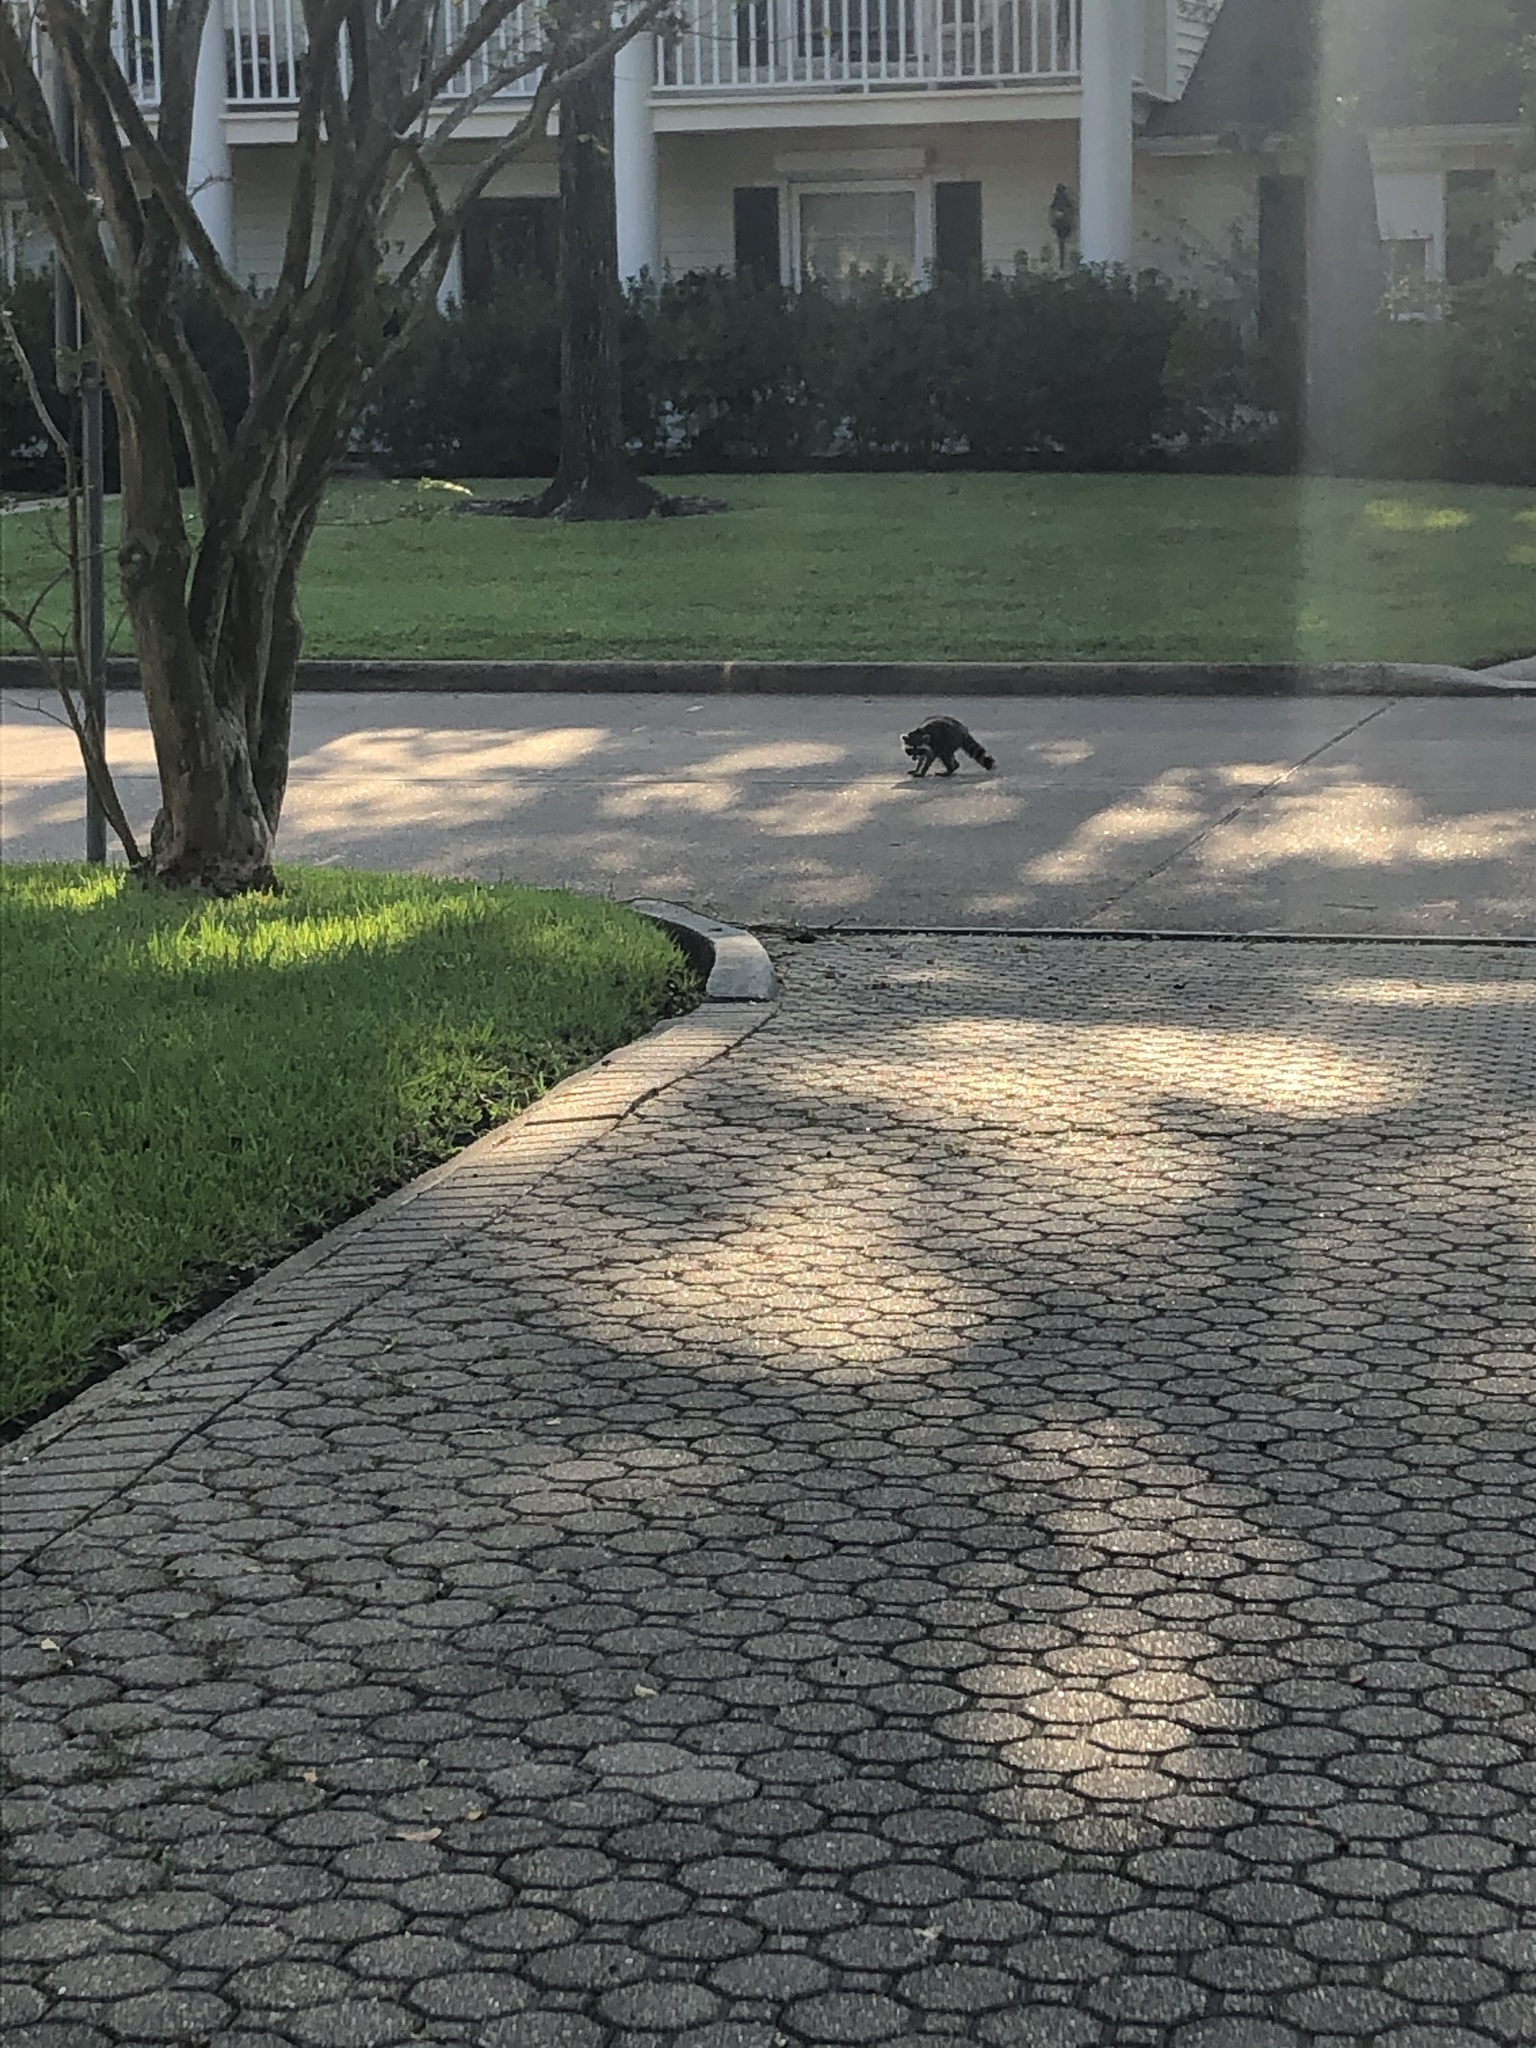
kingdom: Animalia
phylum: Chordata
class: Mammalia
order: Carnivora
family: Procyonidae
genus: Procyon
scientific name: Procyon lotor
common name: Raccoon
